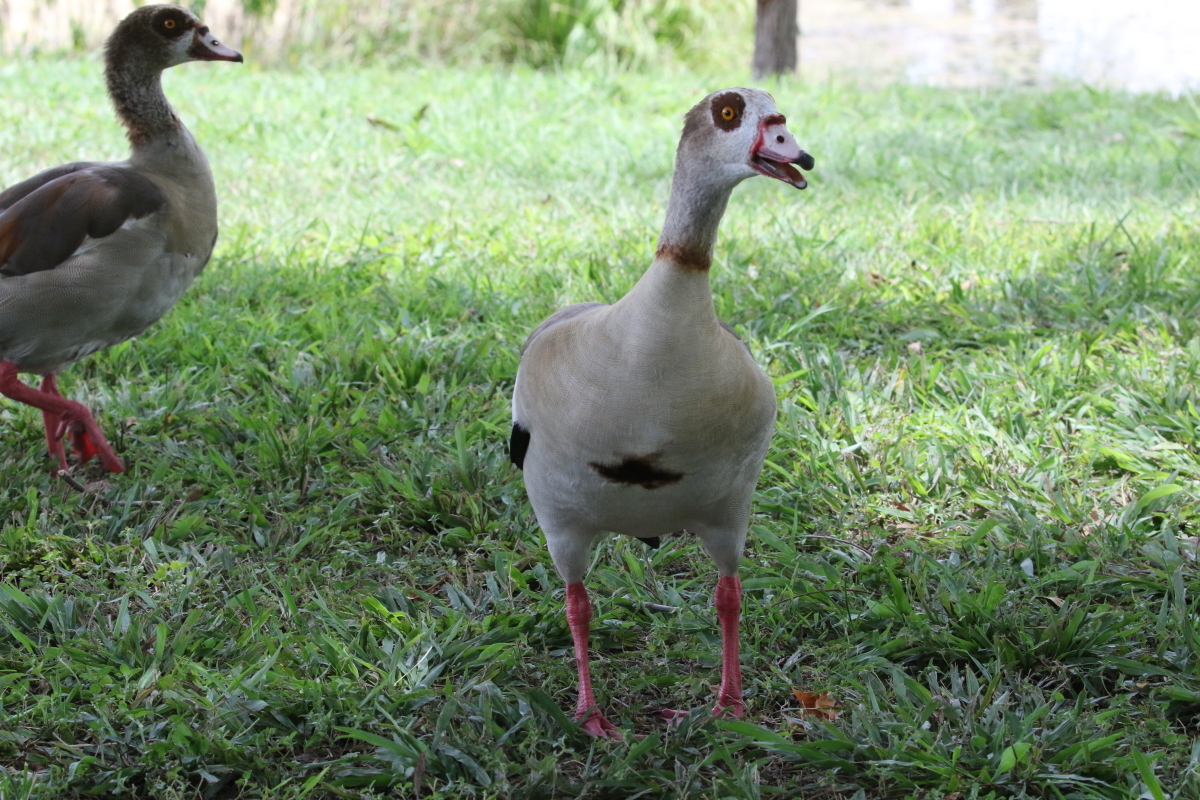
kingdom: Animalia
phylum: Chordata
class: Aves
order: Anseriformes
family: Anatidae
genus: Alopochen
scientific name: Alopochen aegyptiaca
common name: Egyptian goose
